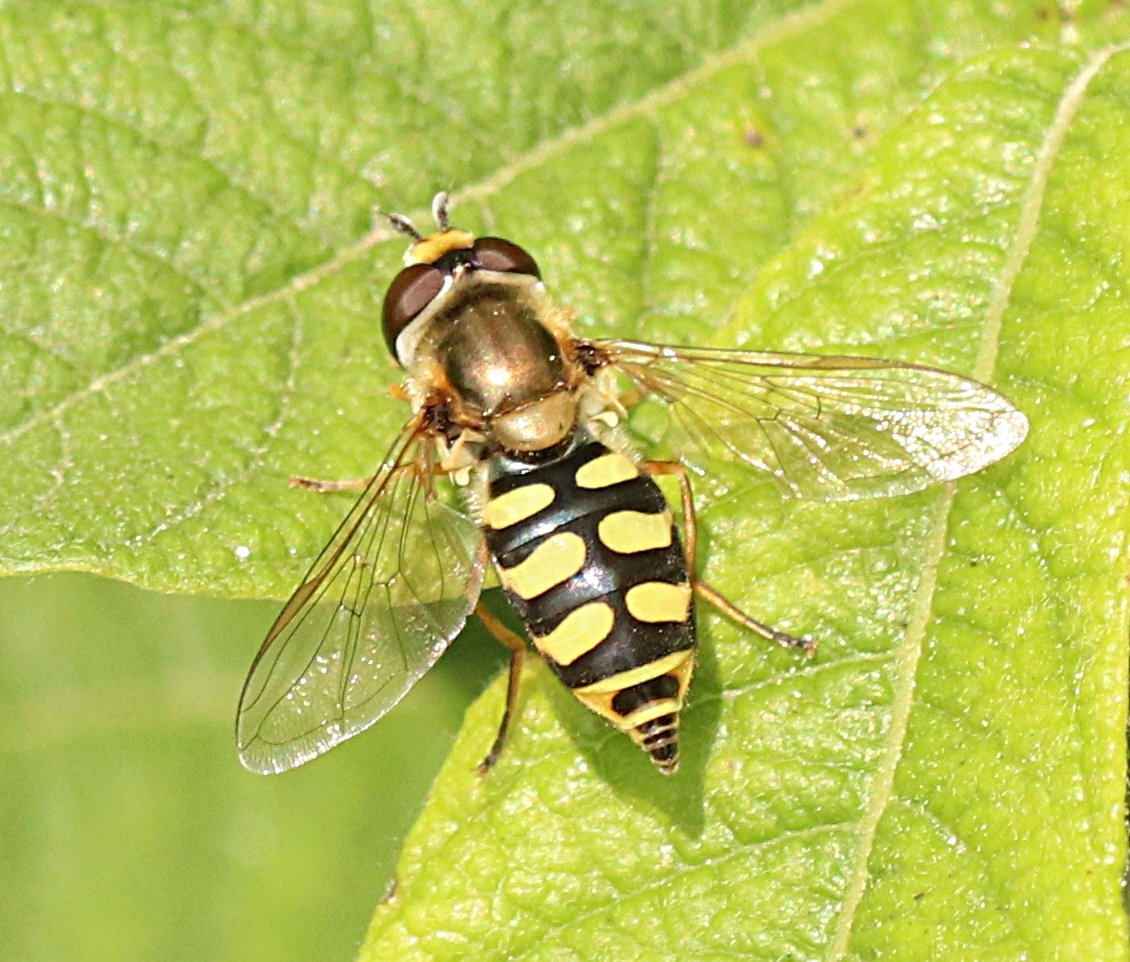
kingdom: Animalia
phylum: Arthropoda
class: Insecta
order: Diptera
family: Syrphidae
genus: Eupeodes
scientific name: Eupeodes corollae
